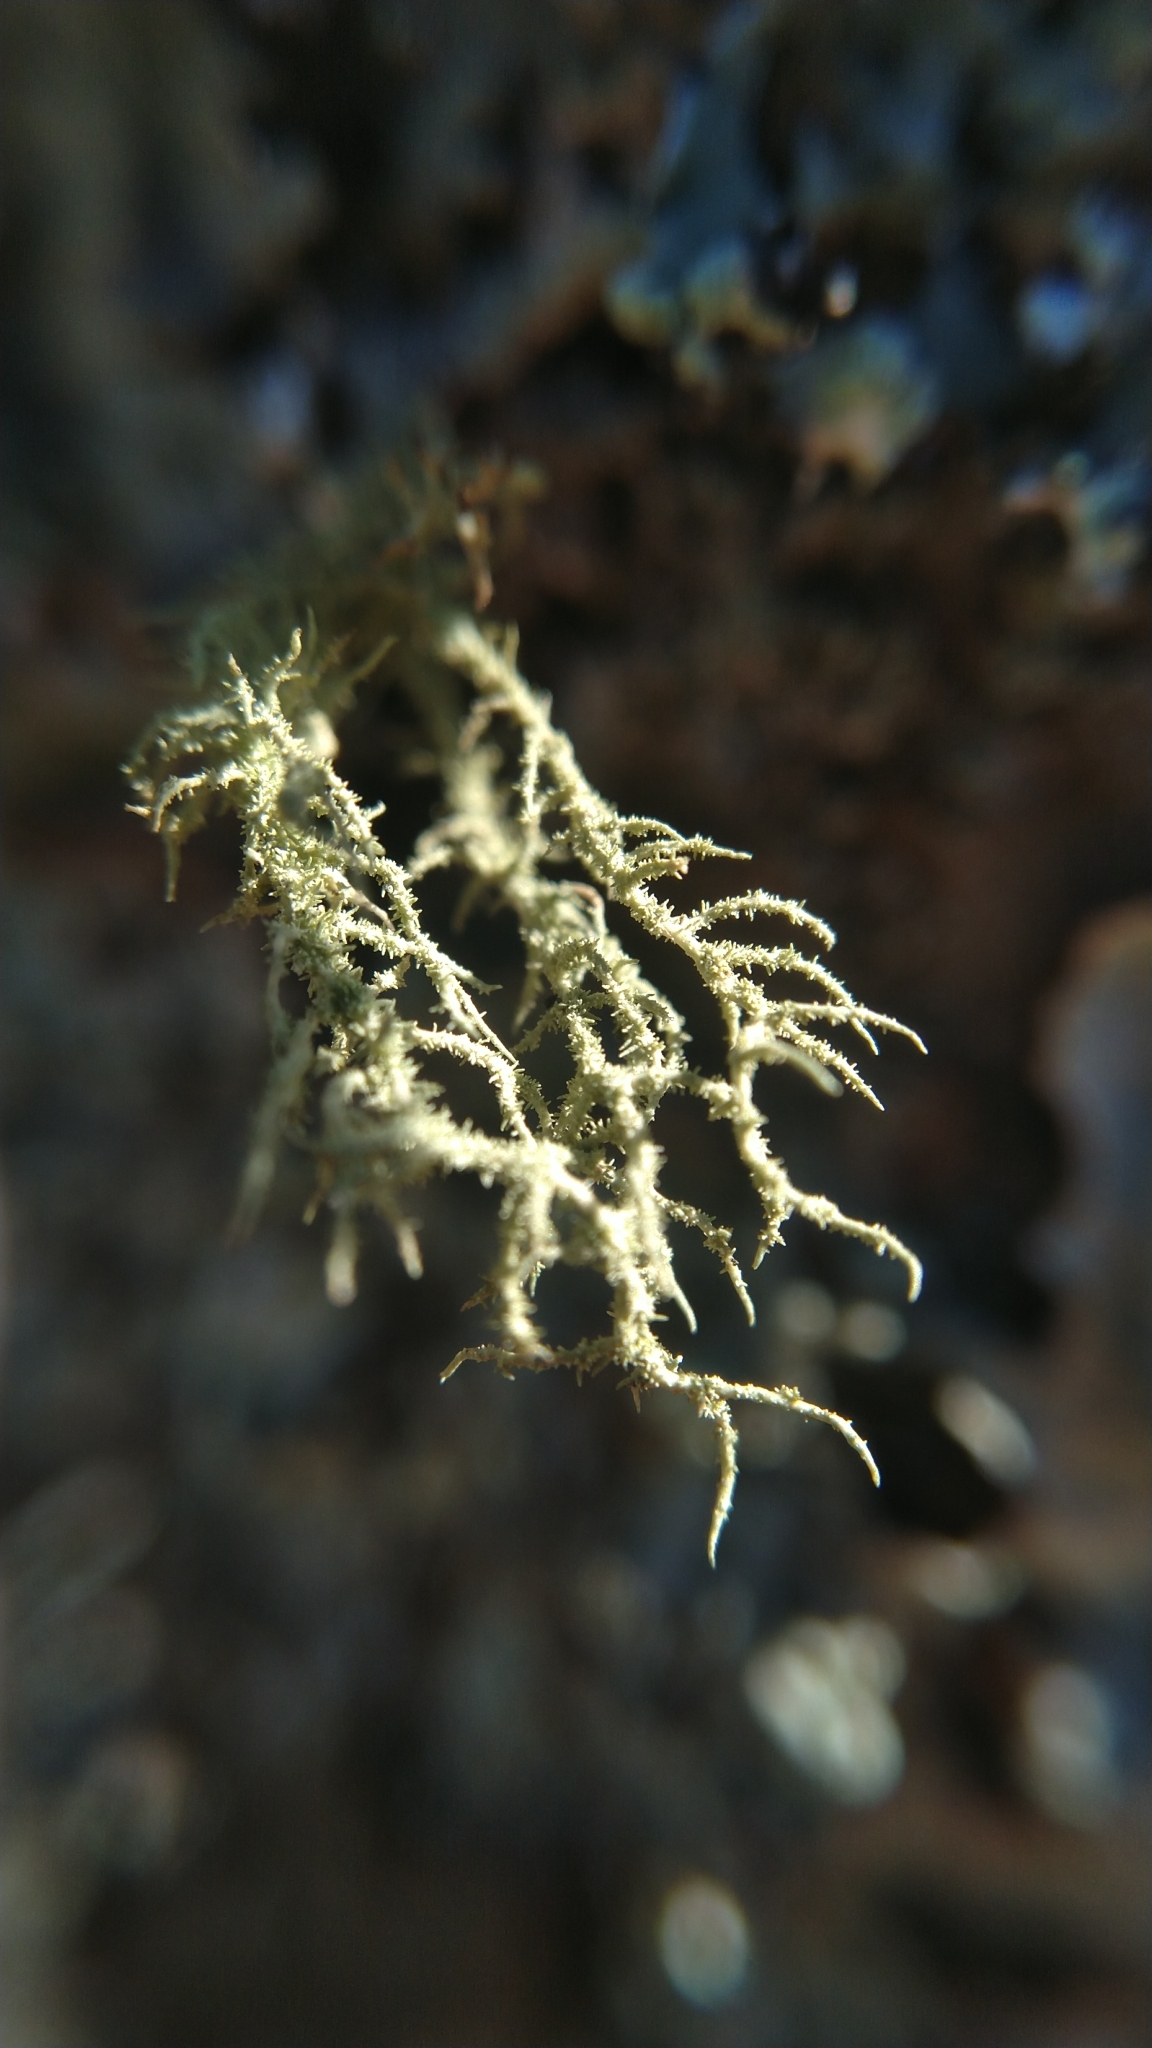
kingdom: Fungi
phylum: Ascomycota
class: Lecanoromycetes
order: Lecanorales
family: Parmeliaceae
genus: Usnea
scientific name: Usnea hirta
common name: Bristly beard lichen
